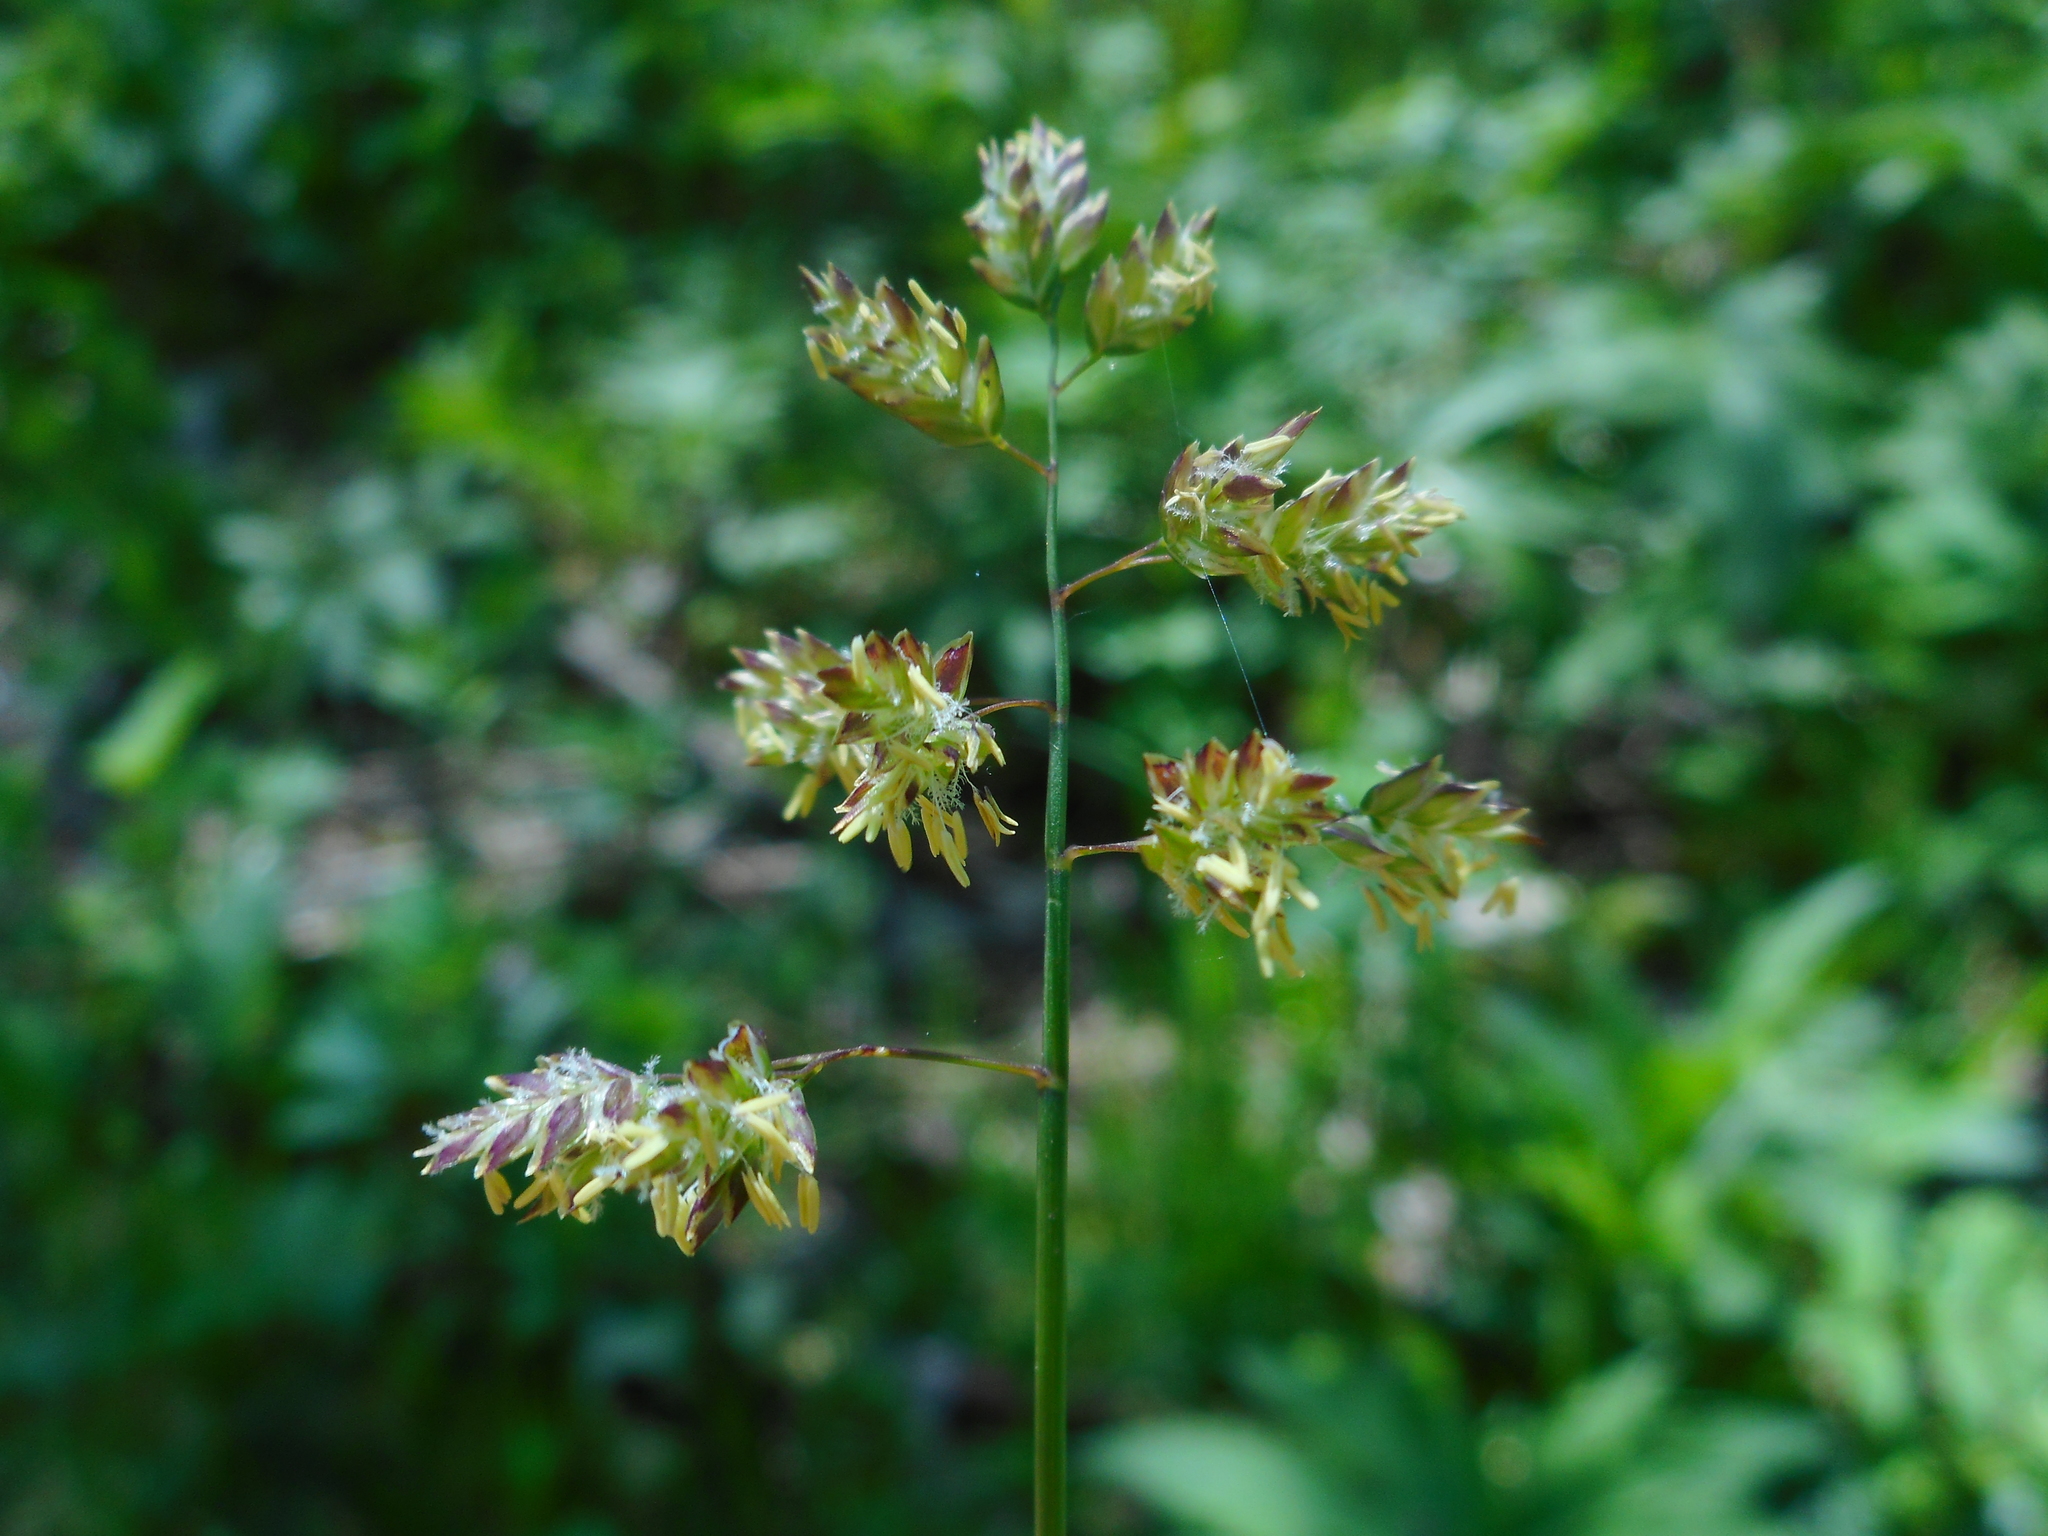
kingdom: Plantae
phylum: Tracheophyta
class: Liliopsida
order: Poales
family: Poaceae
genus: Poa
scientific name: Poa supina
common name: Supina bluegrass
